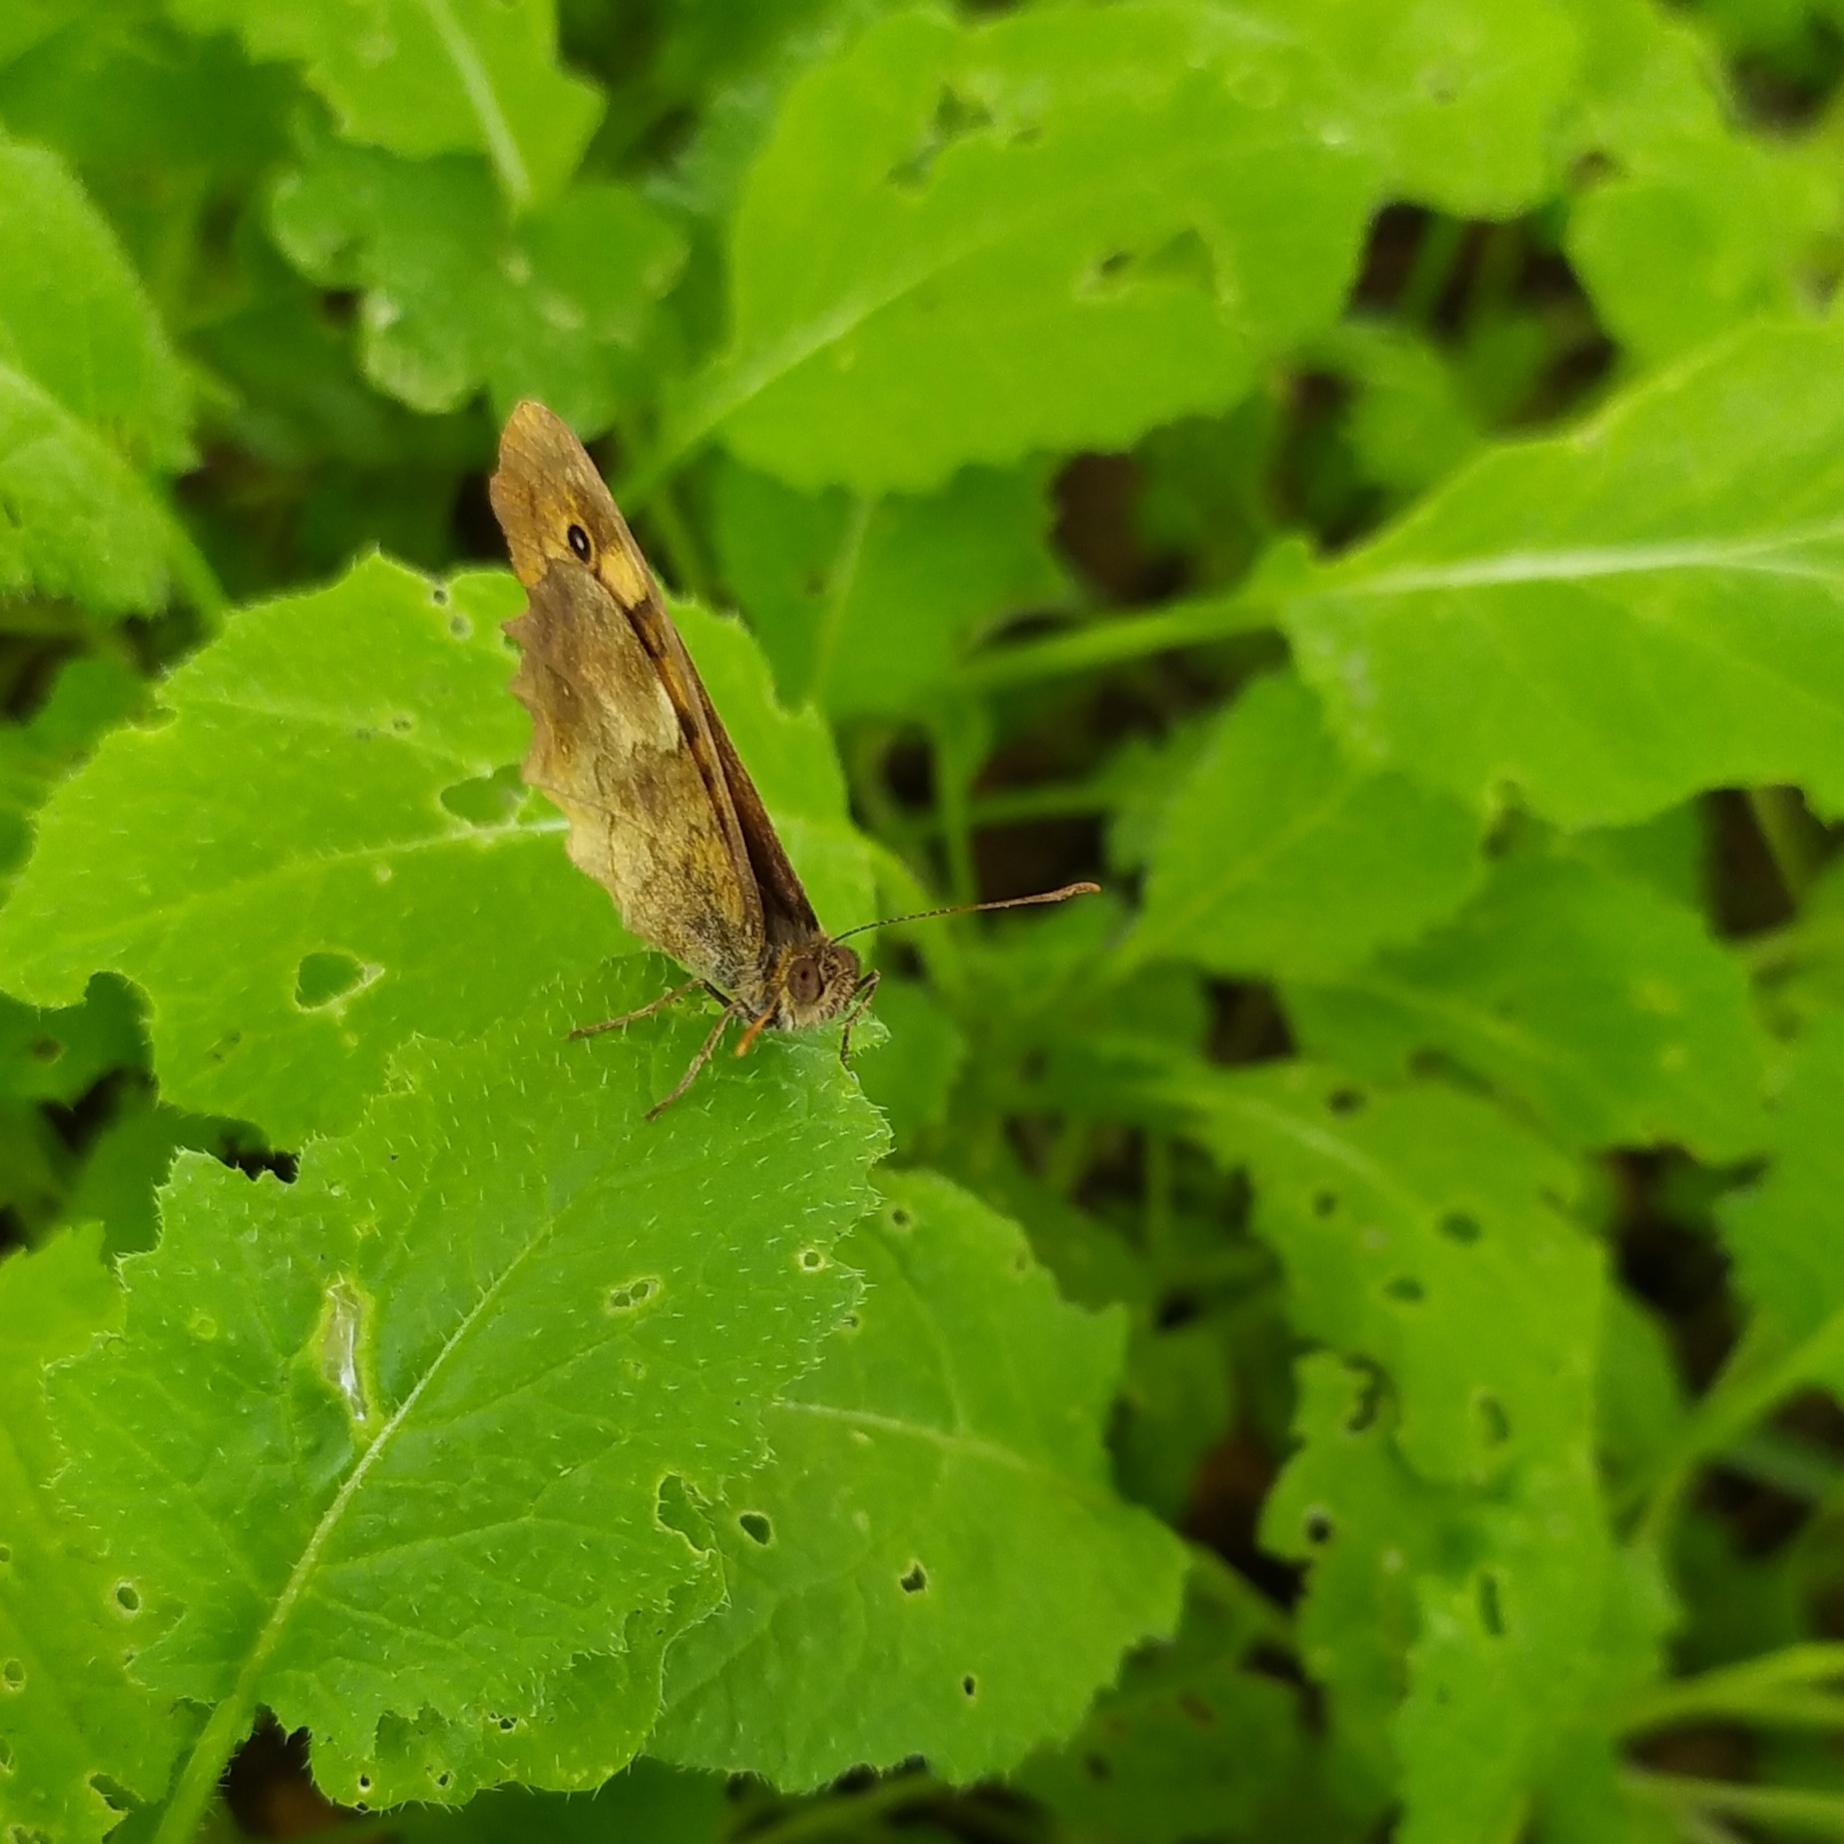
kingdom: Animalia
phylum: Arthropoda
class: Insecta
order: Lepidoptera
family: Nymphalidae
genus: Pararge
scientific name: Pararge aegeria
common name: Speckled wood
